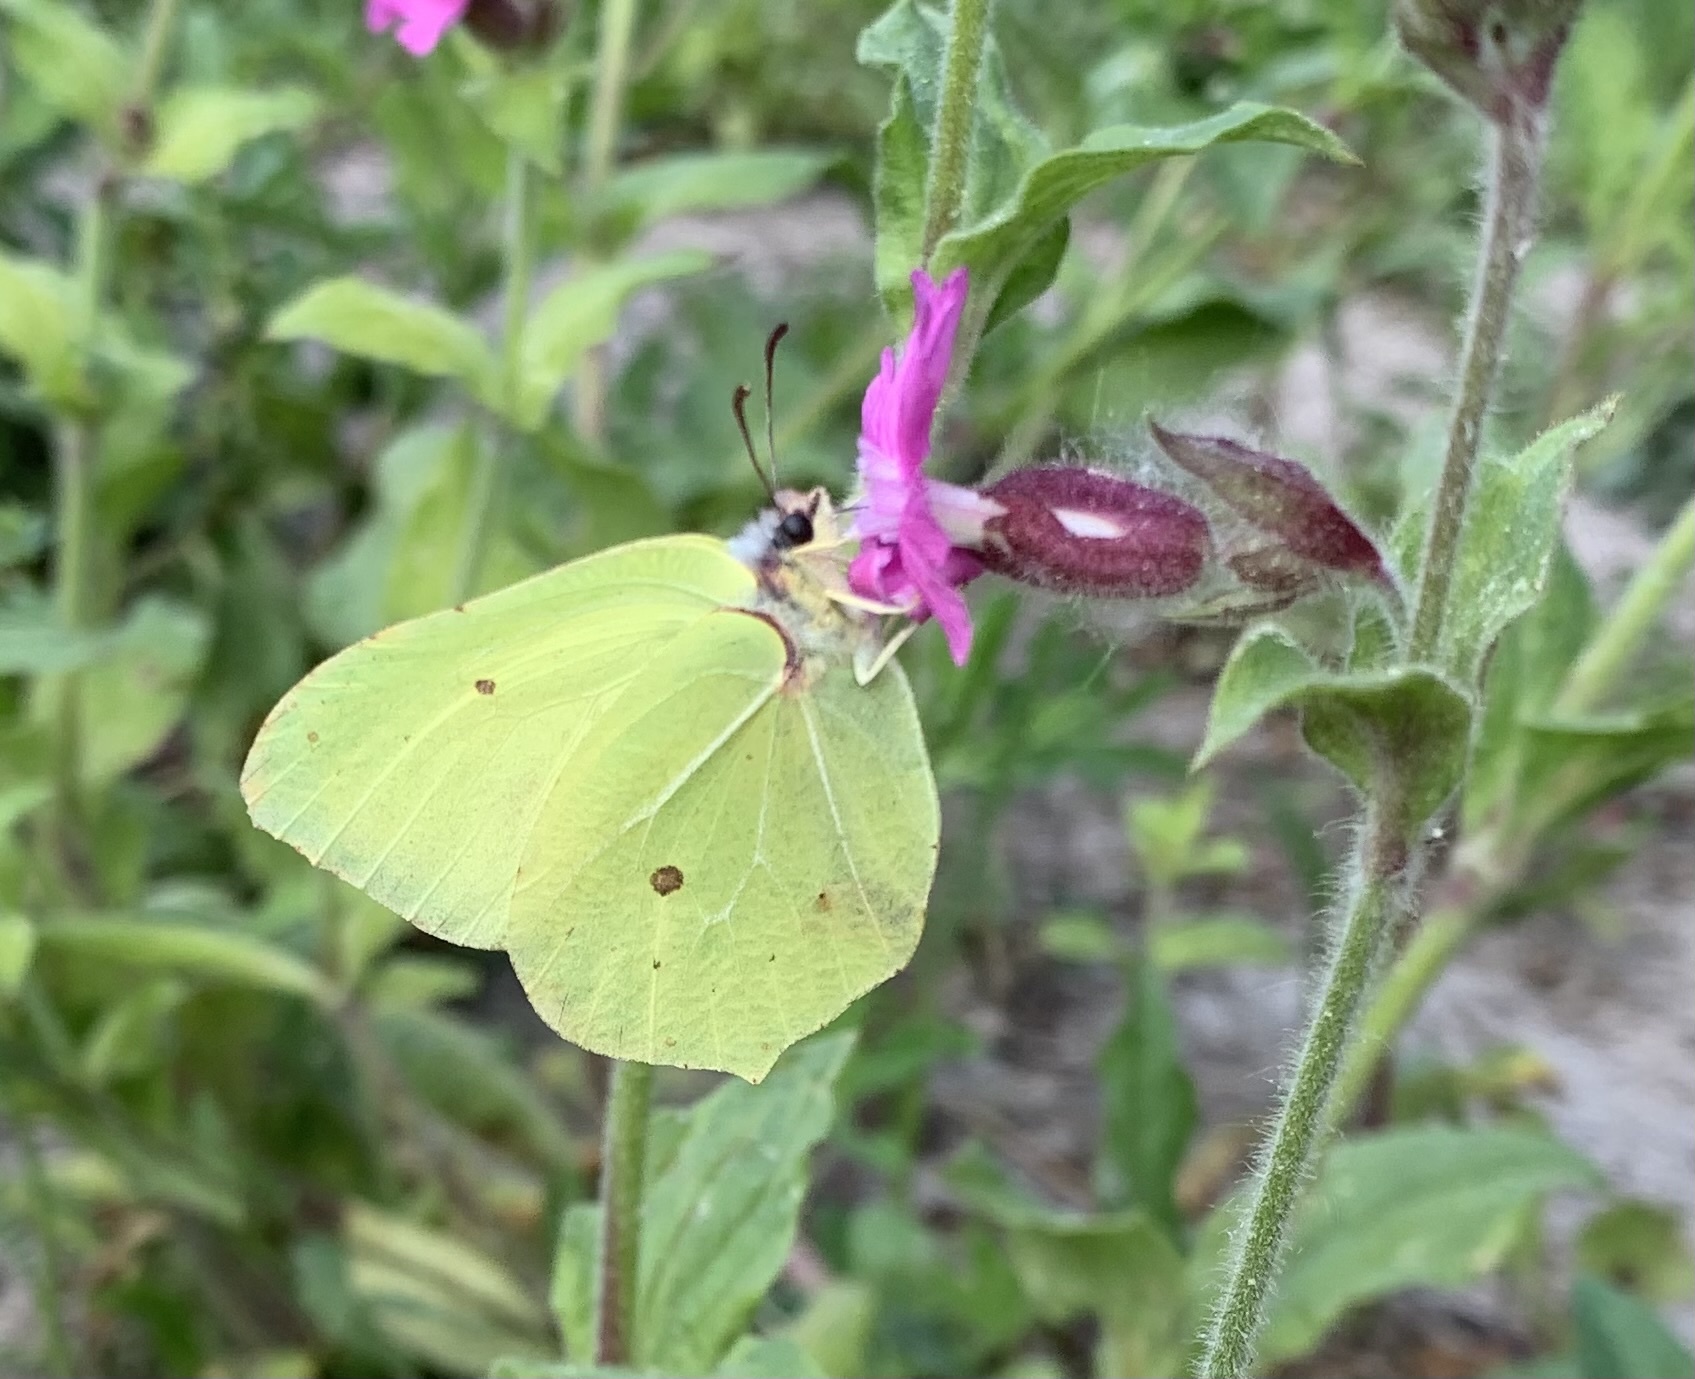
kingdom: Animalia
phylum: Arthropoda
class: Insecta
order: Lepidoptera
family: Pieridae
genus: Gonepteryx
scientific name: Gonepteryx rhamni
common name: Brimstone
